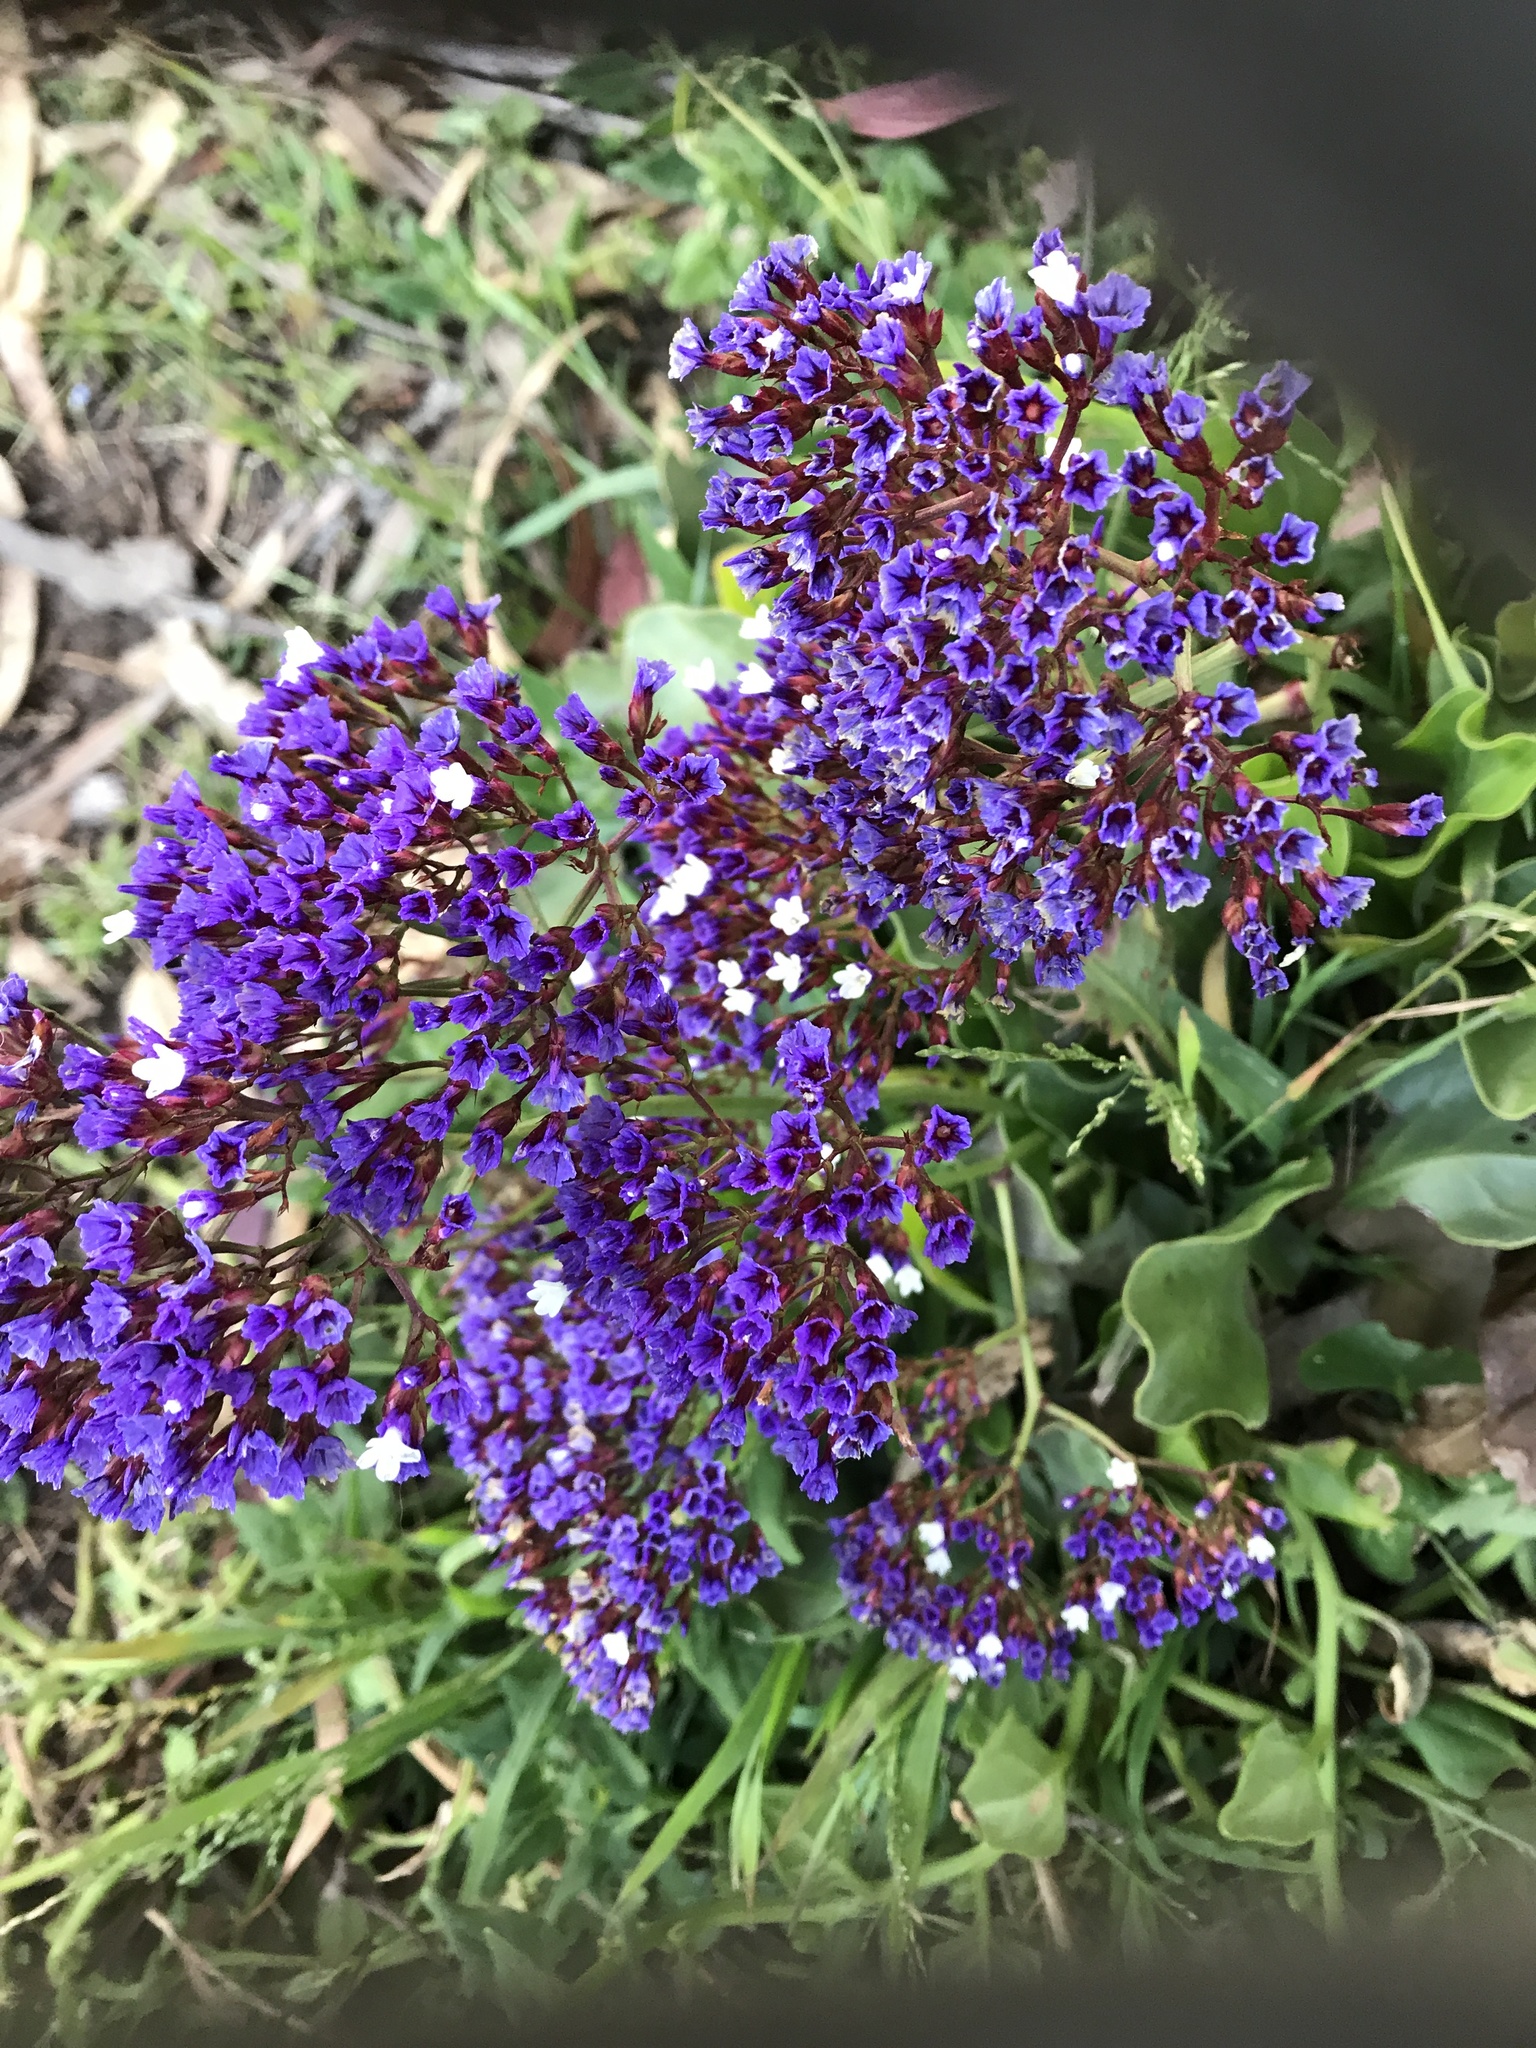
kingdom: Plantae
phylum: Tracheophyta
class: Magnoliopsida
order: Caryophyllales
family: Plumbaginaceae
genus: Limonium
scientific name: Limonium perezii
